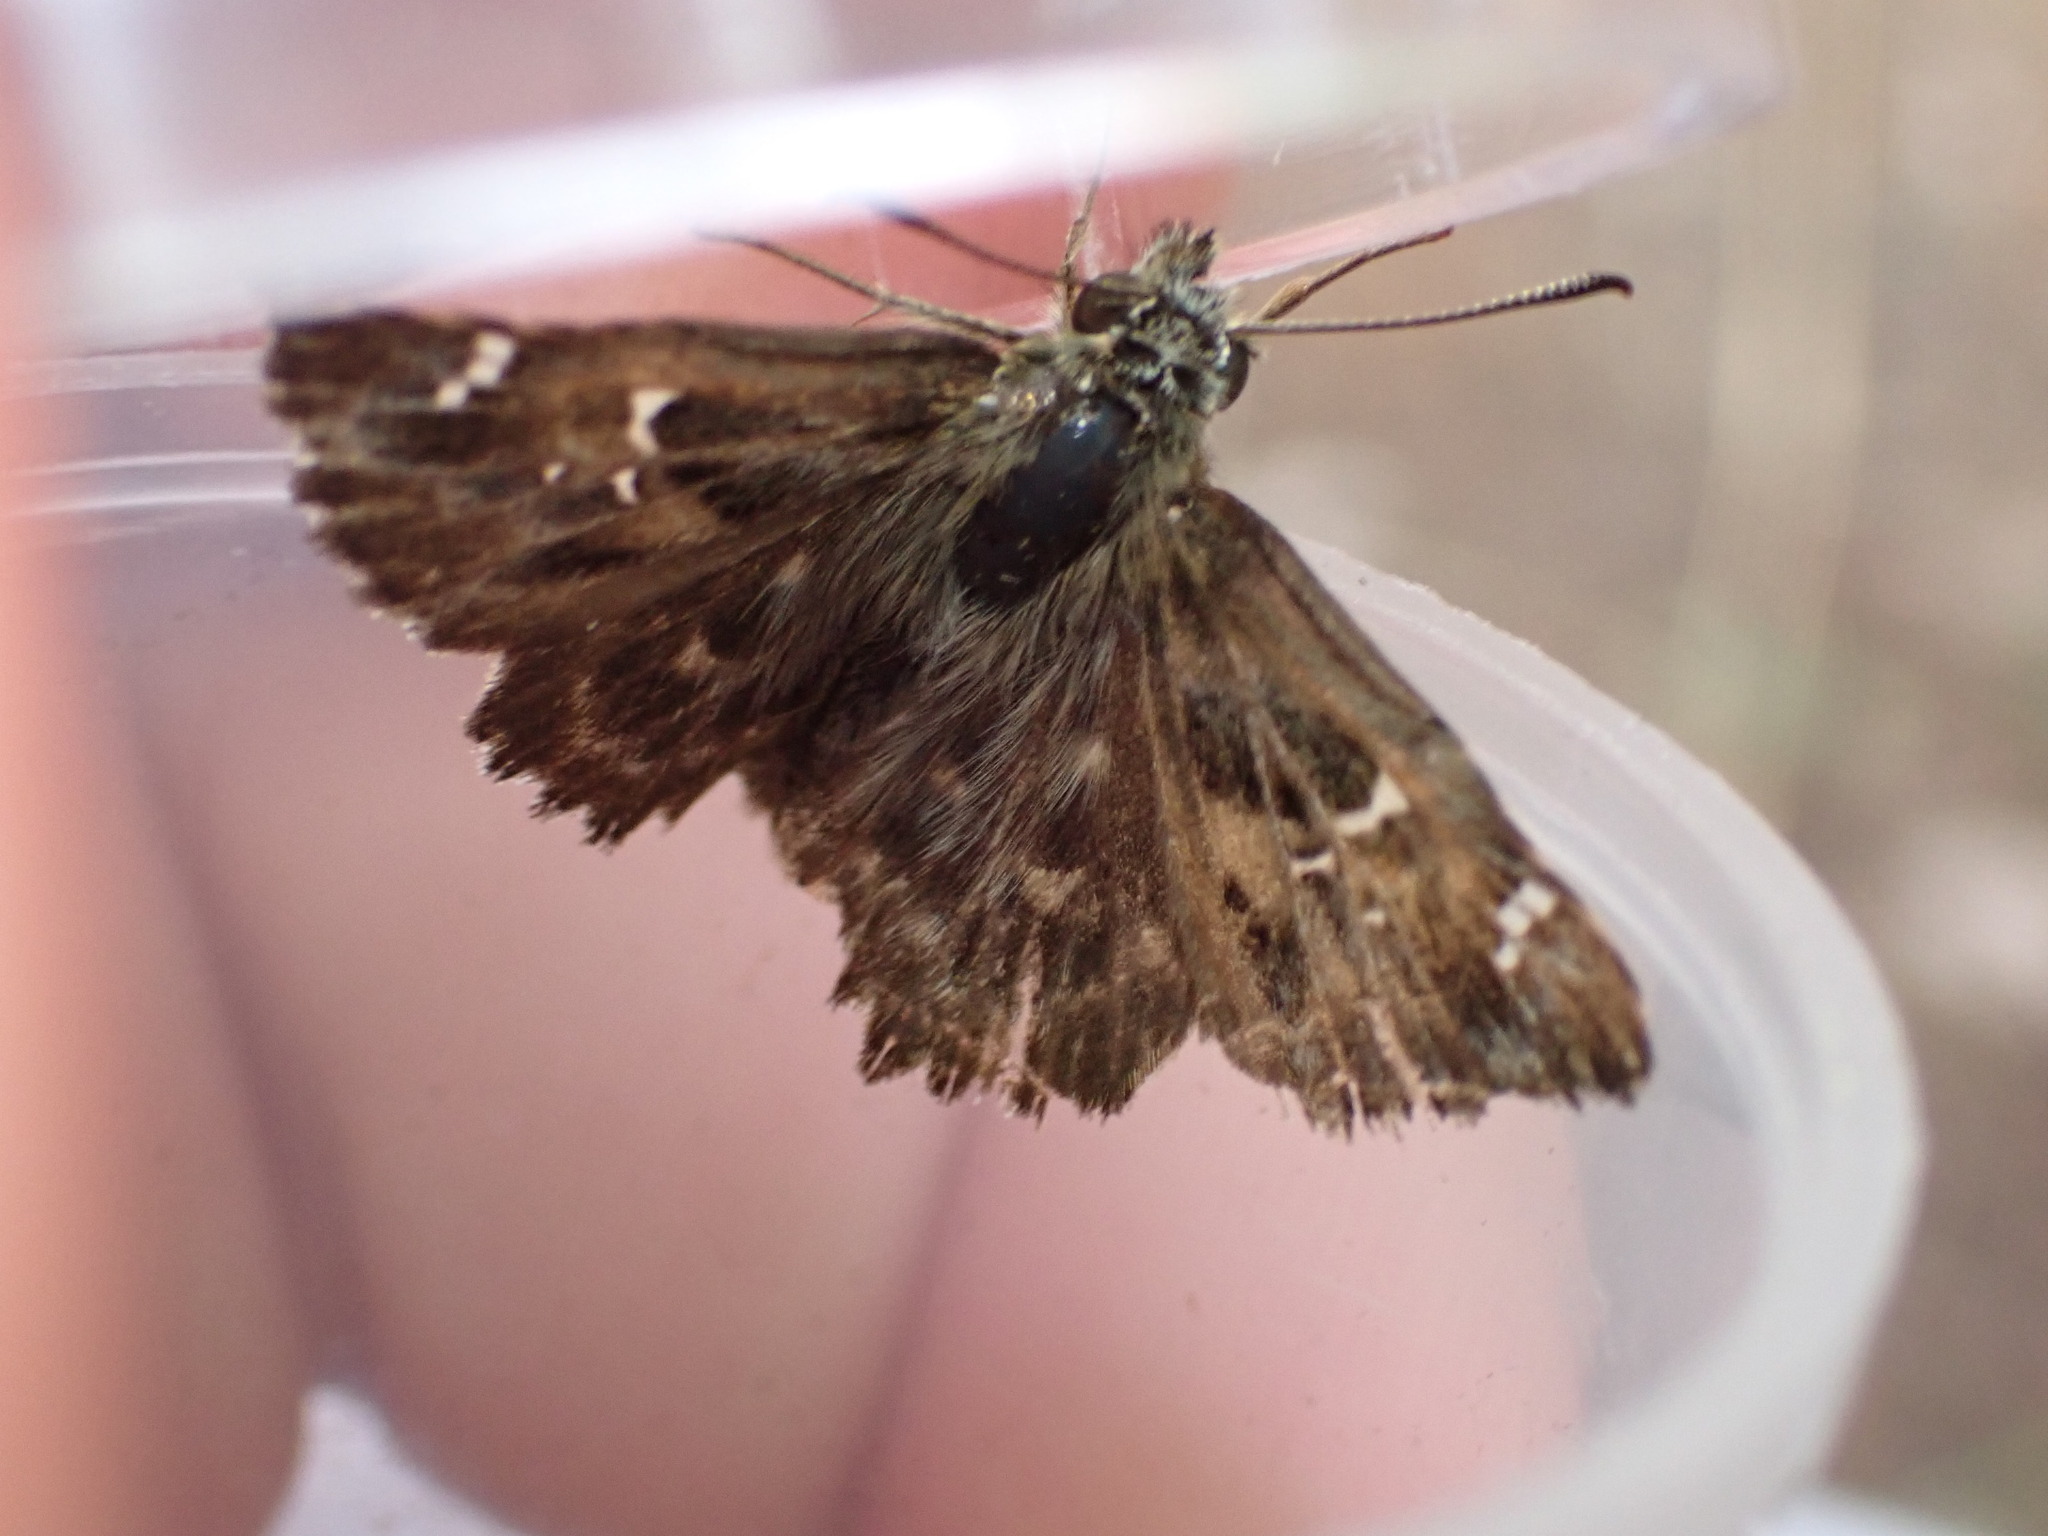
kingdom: Animalia
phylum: Arthropoda
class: Insecta
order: Lepidoptera
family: Hesperiidae
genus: Carcharodus
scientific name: Carcharodus alceae
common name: Mallow skipper
